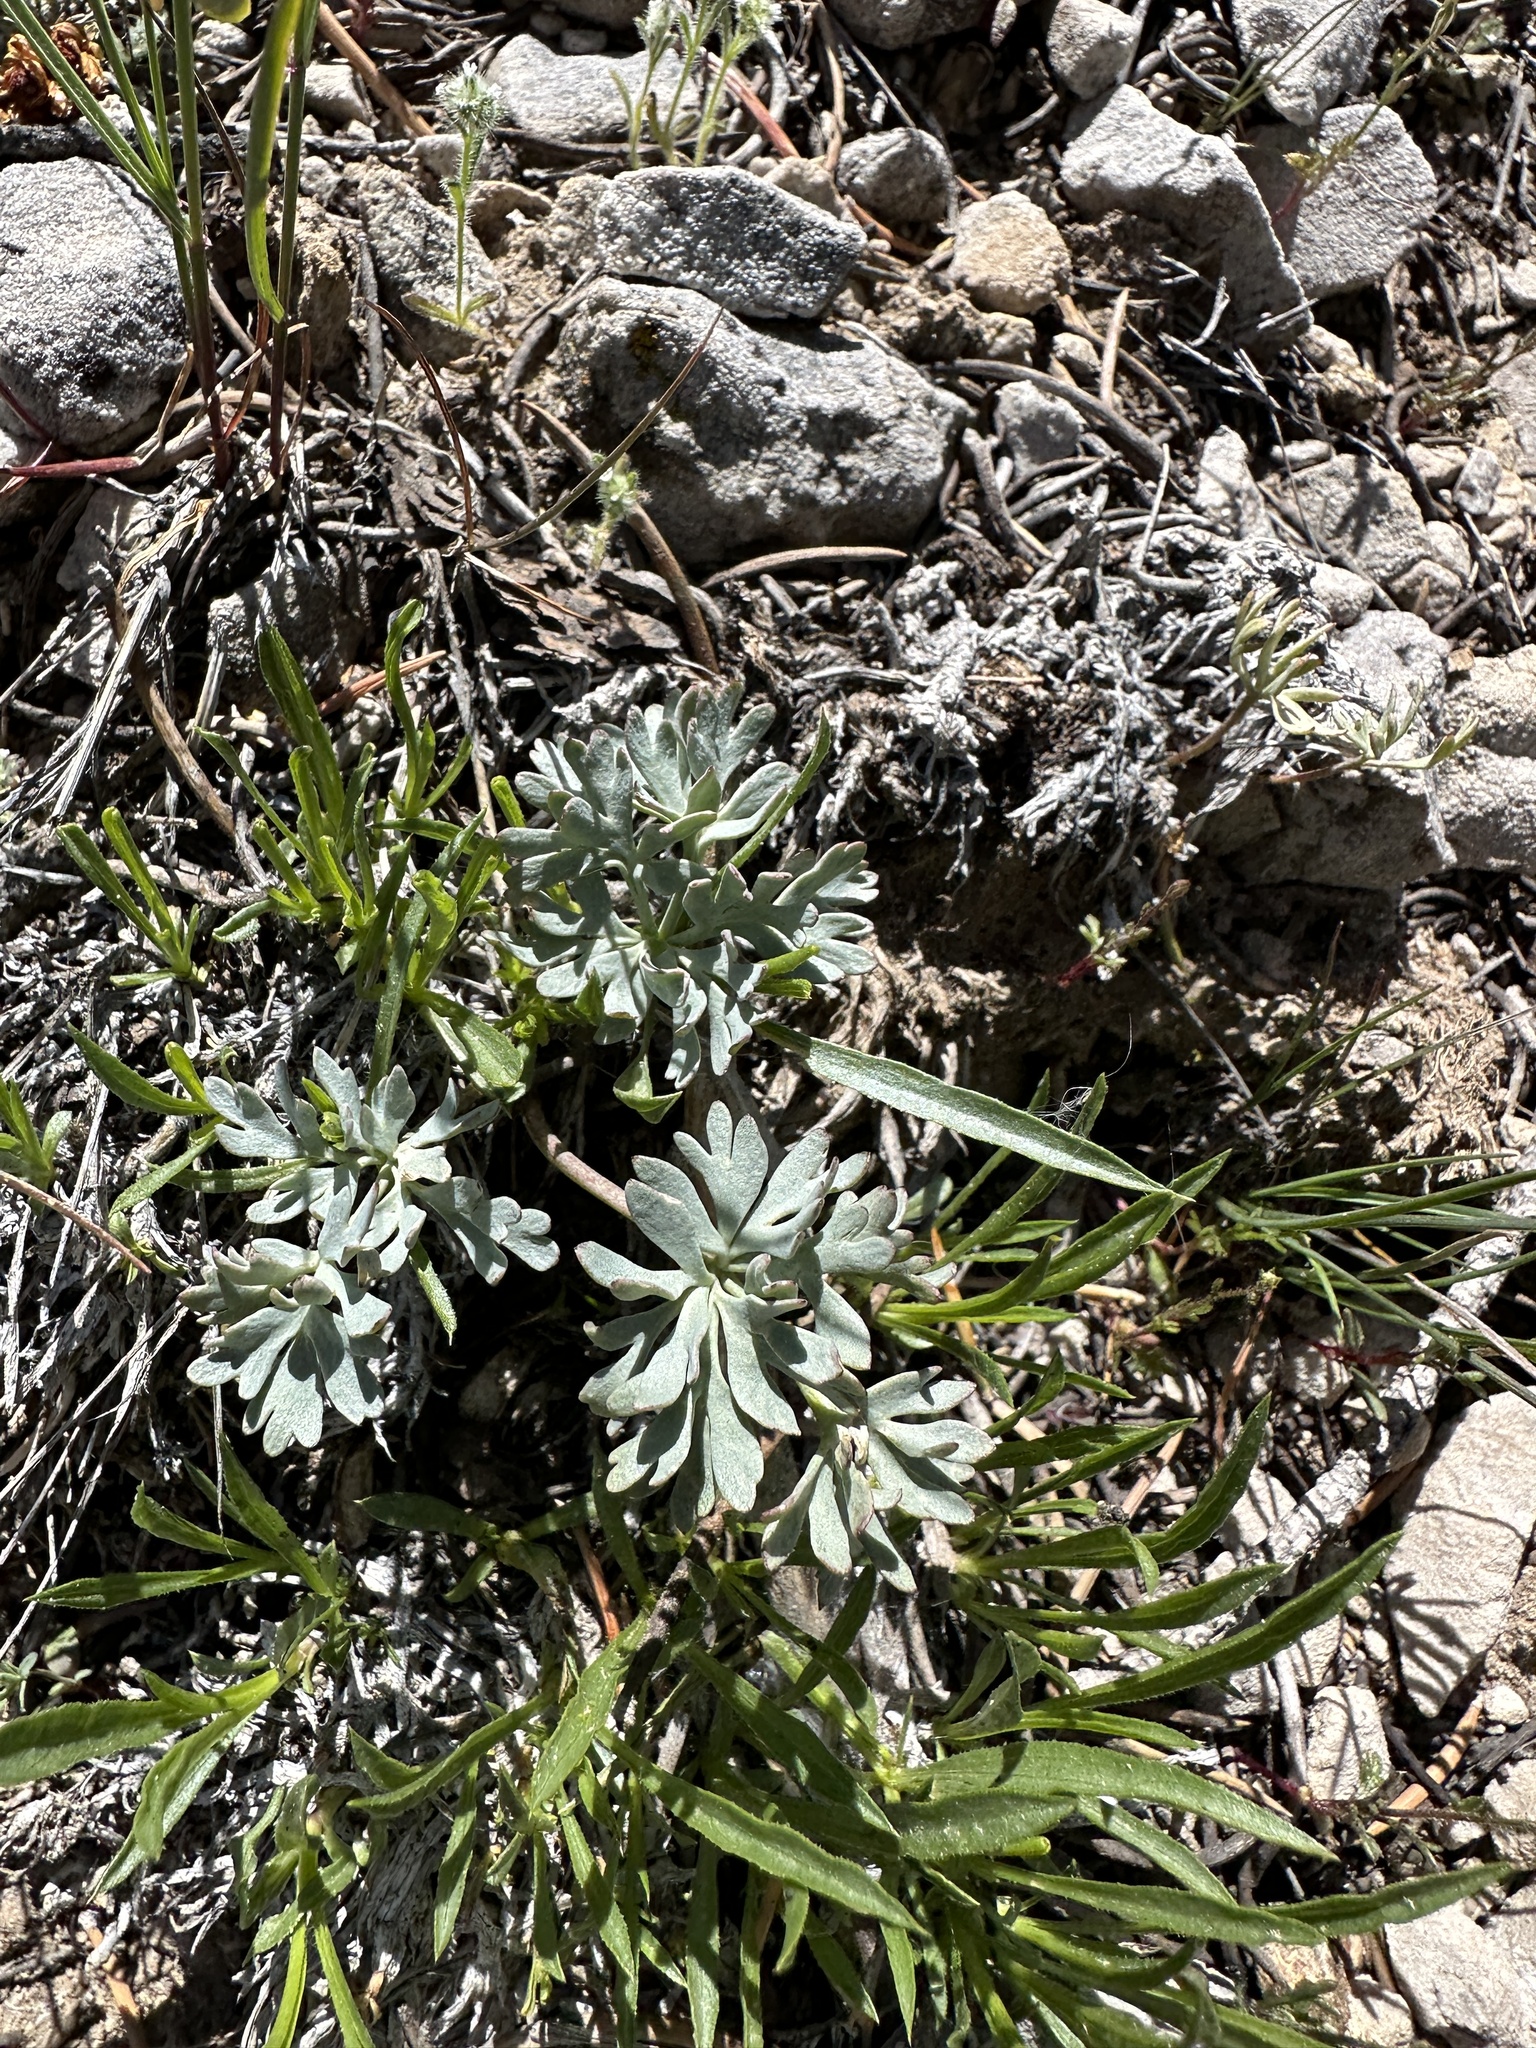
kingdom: Plantae
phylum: Tracheophyta
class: Magnoliopsida
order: Ranunculales
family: Ranunculaceae
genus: Beckwithia
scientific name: Beckwithia andersonii
